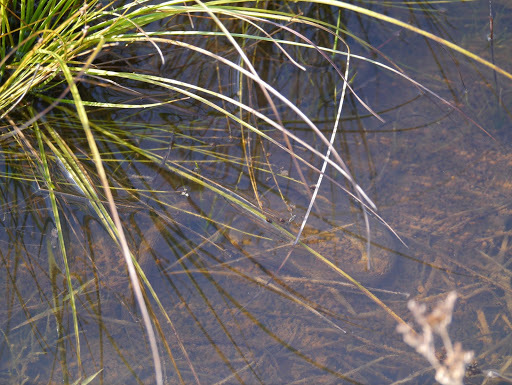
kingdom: Animalia
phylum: Chordata
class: Squamata
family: Colubridae
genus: Nerodia
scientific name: Nerodia sipedon
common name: Northern water snake
